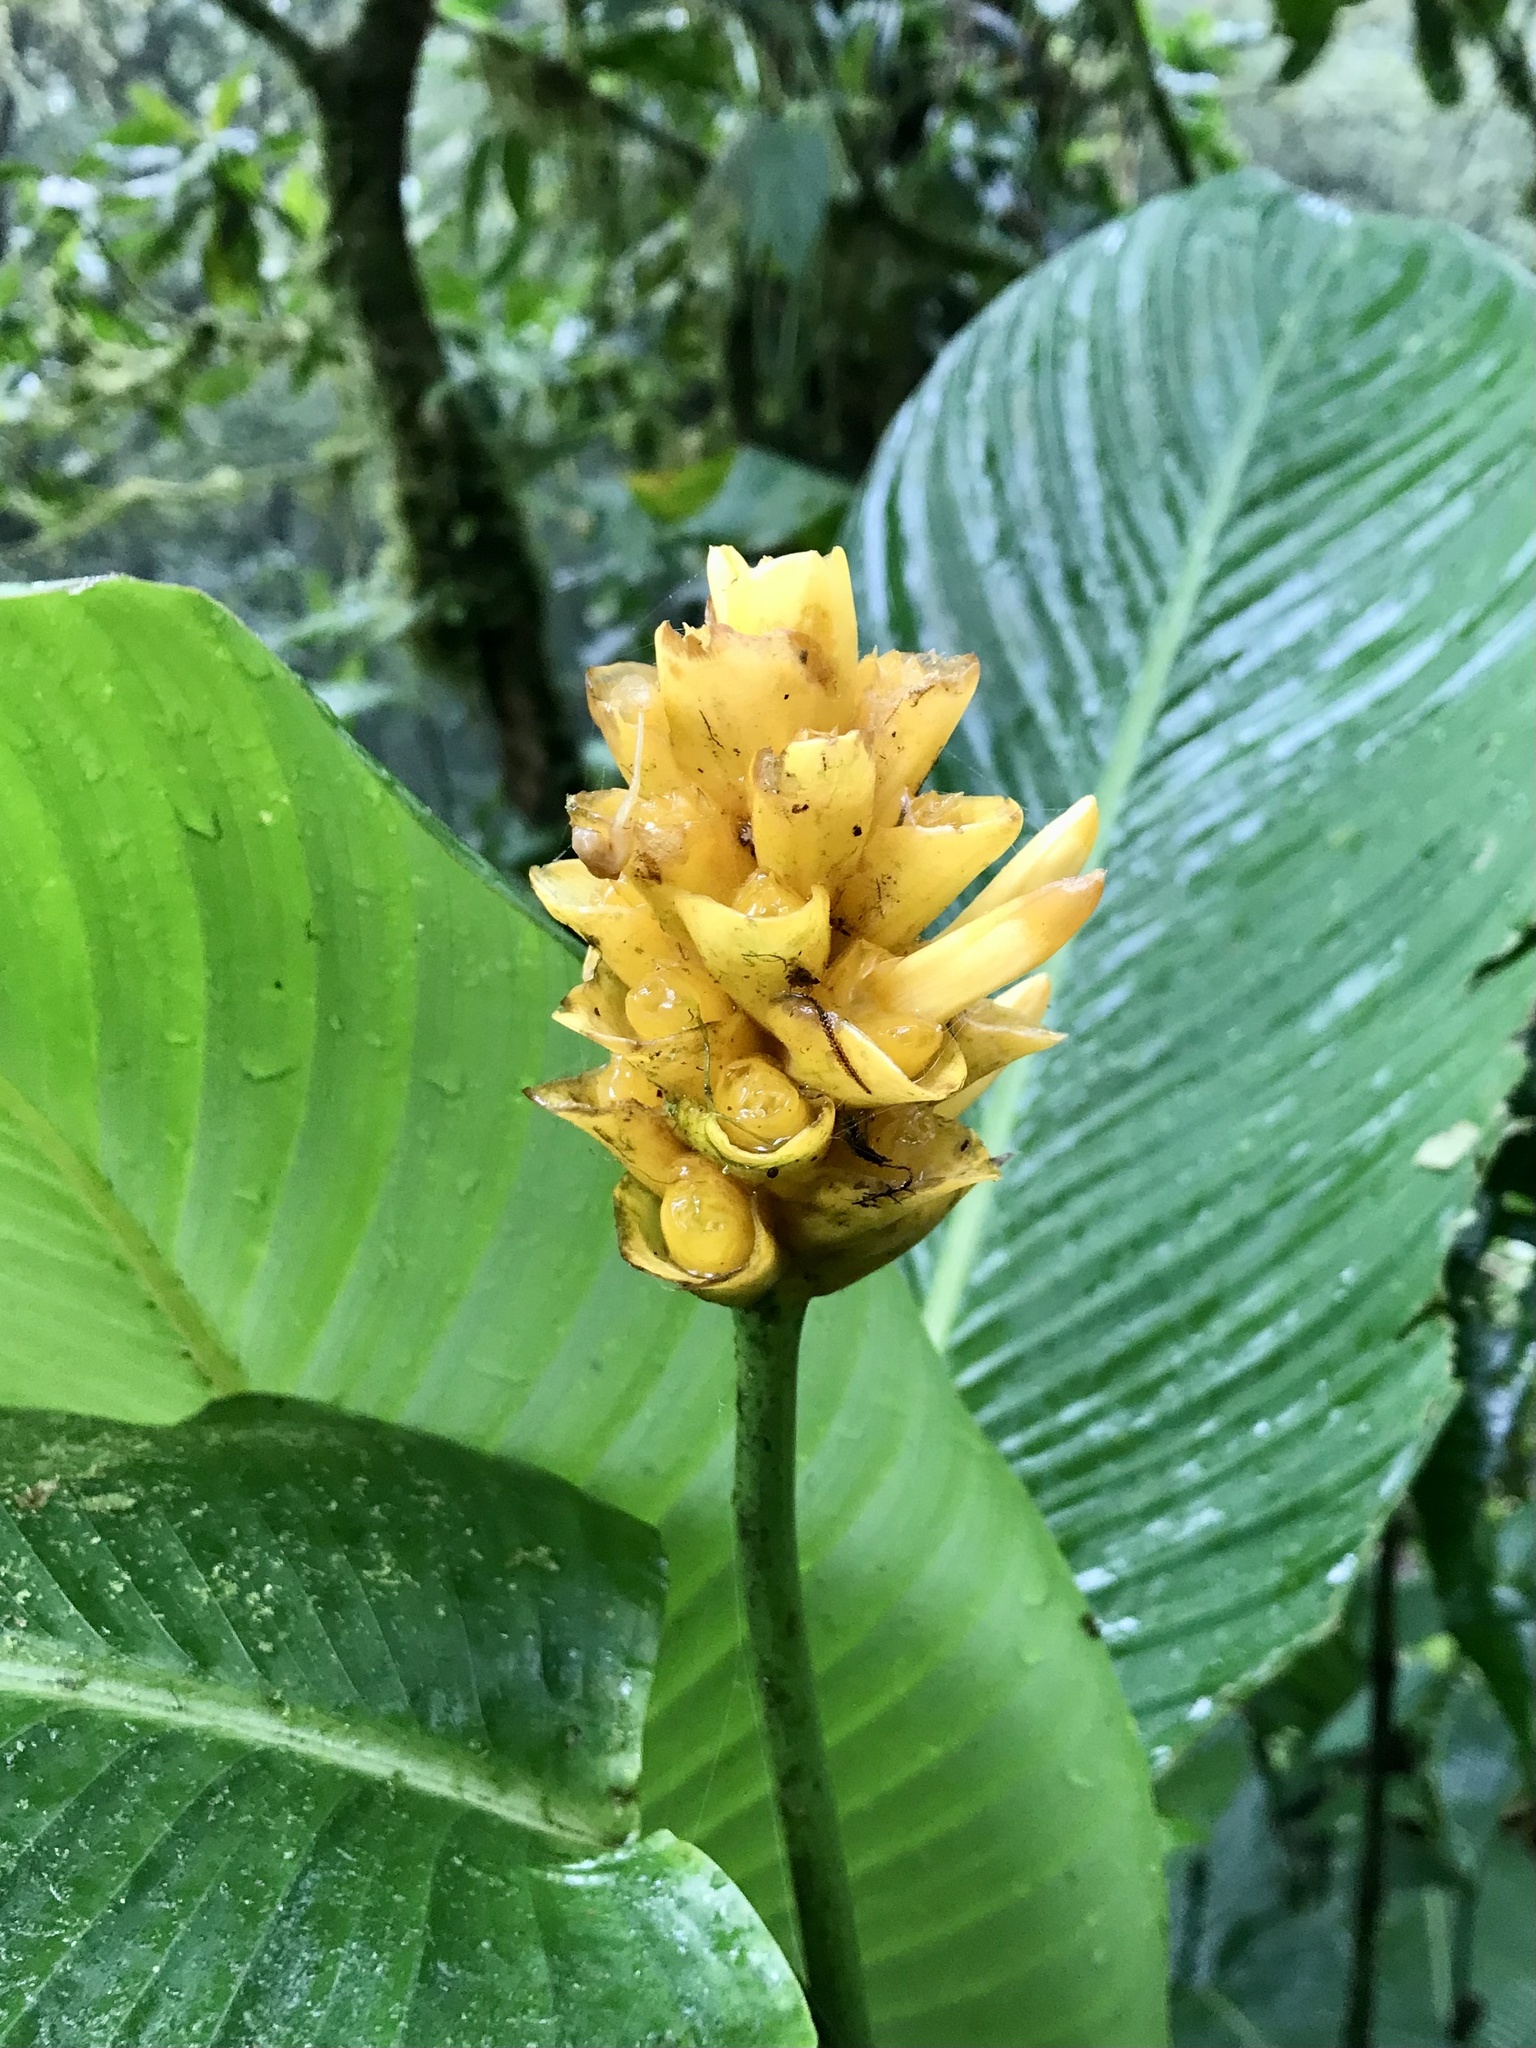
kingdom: Plantae
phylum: Tracheophyta
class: Liliopsida
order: Zingiberales
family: Marantaceae
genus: Goeppertia
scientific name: Goeppertia marantifolia
